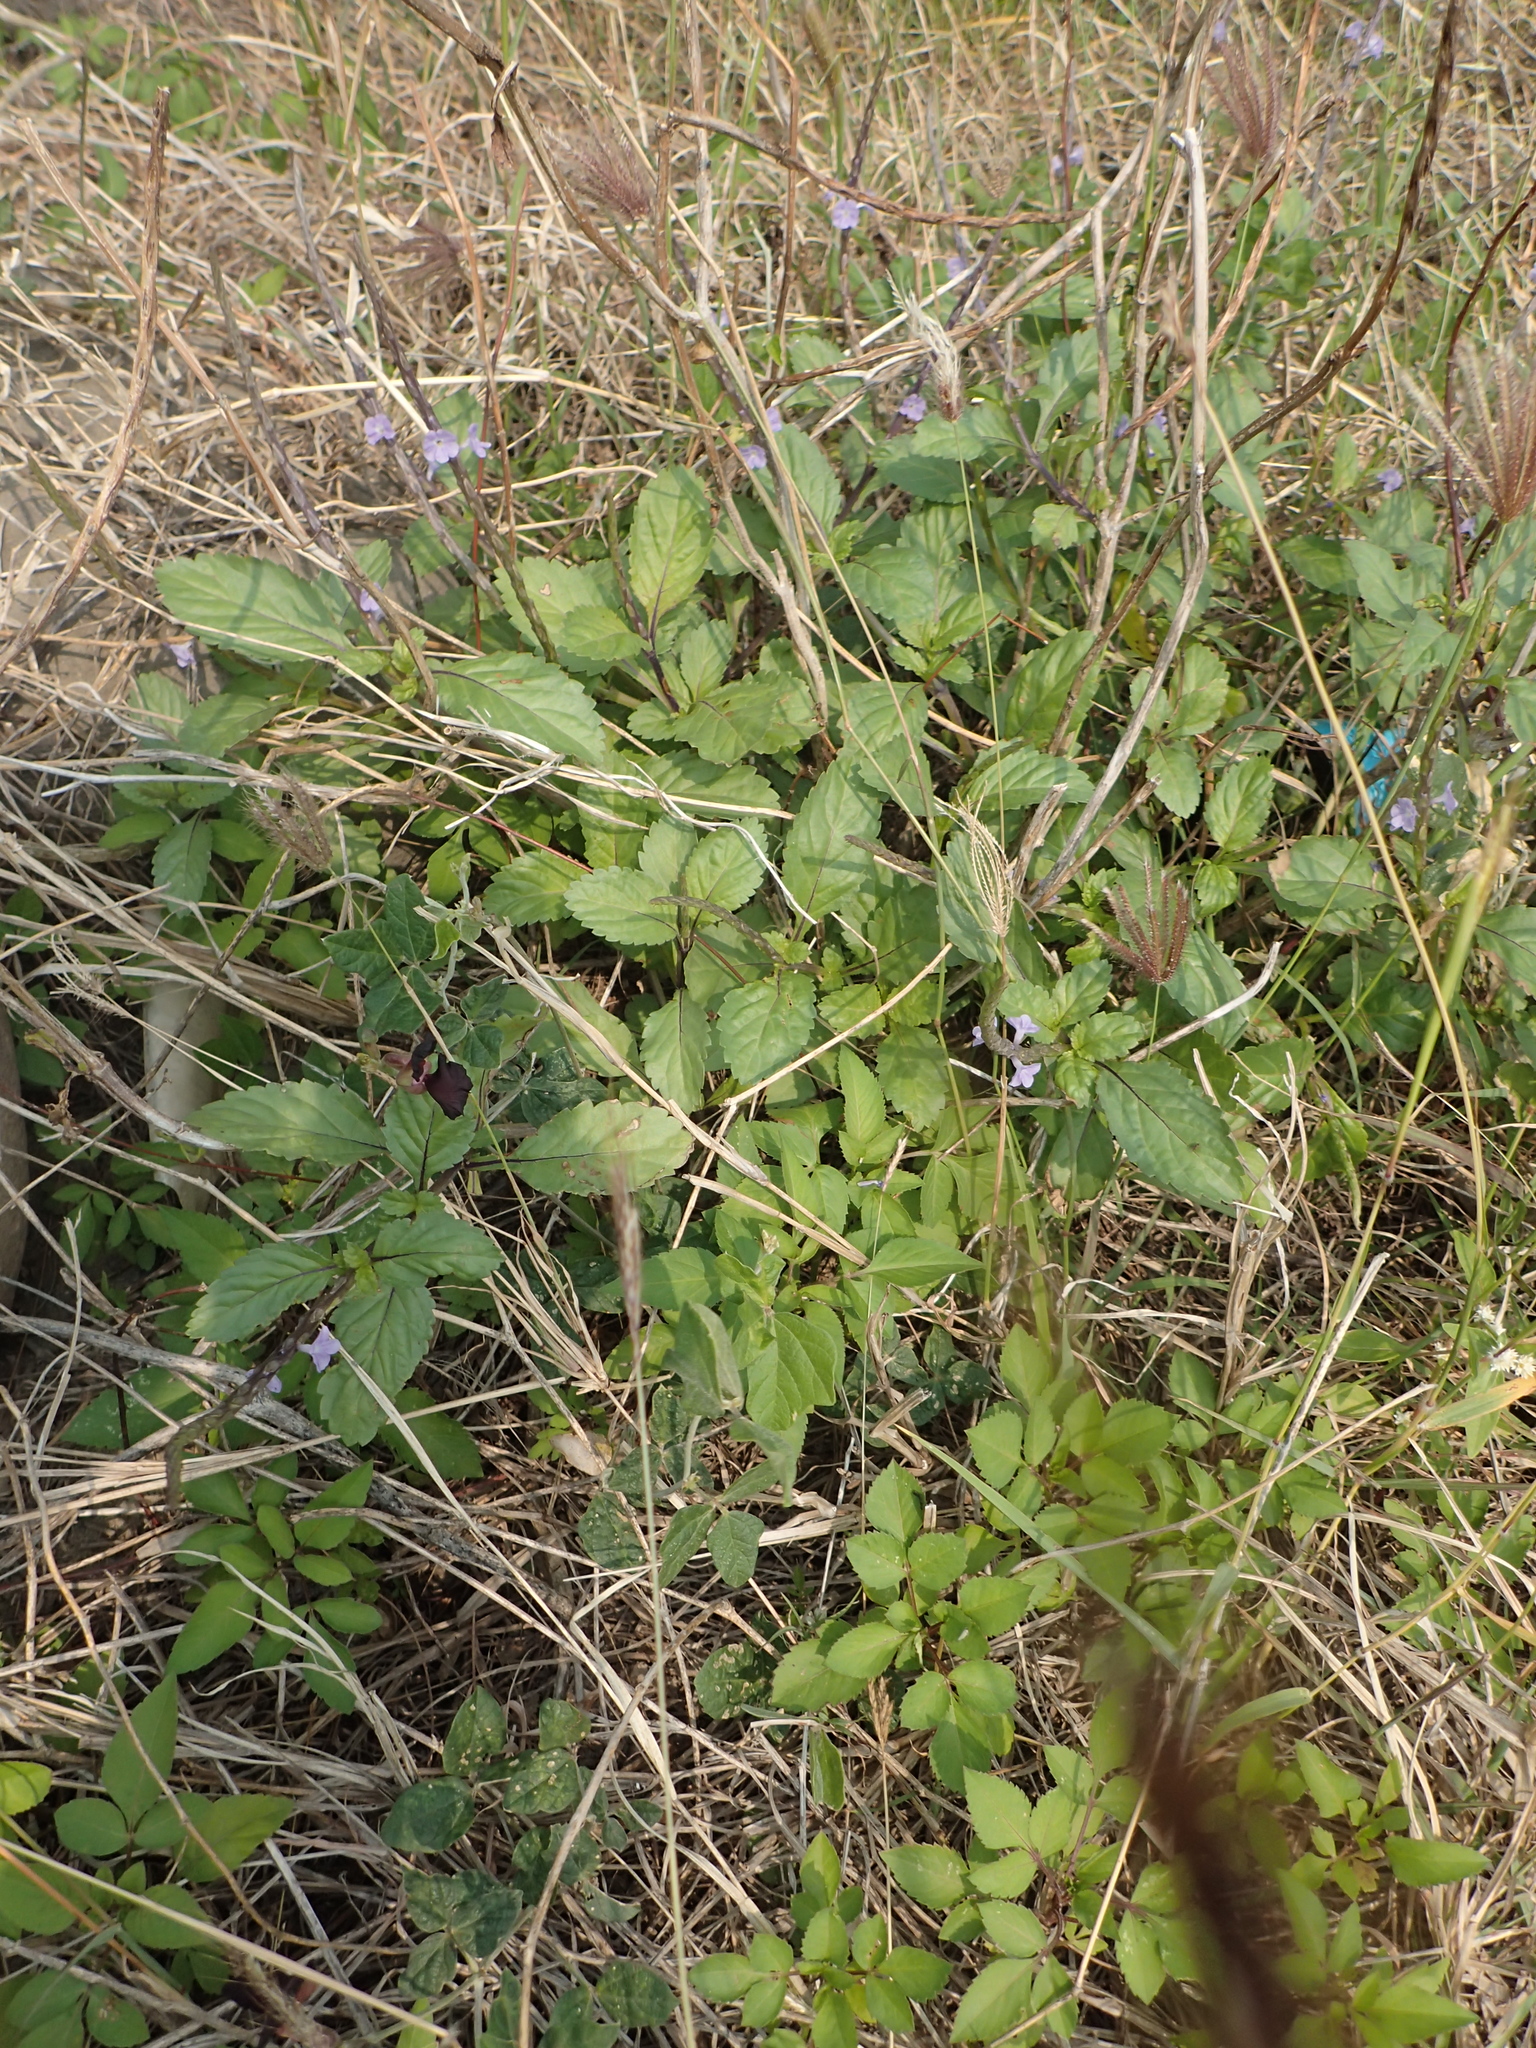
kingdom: Plantae
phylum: Tracheophyta
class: Magnoliopsida
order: Lamiales
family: Verbenaceae
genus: Stachytarpheta
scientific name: Stachytarpheta jamaicensis
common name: Light-blue snakeweed
